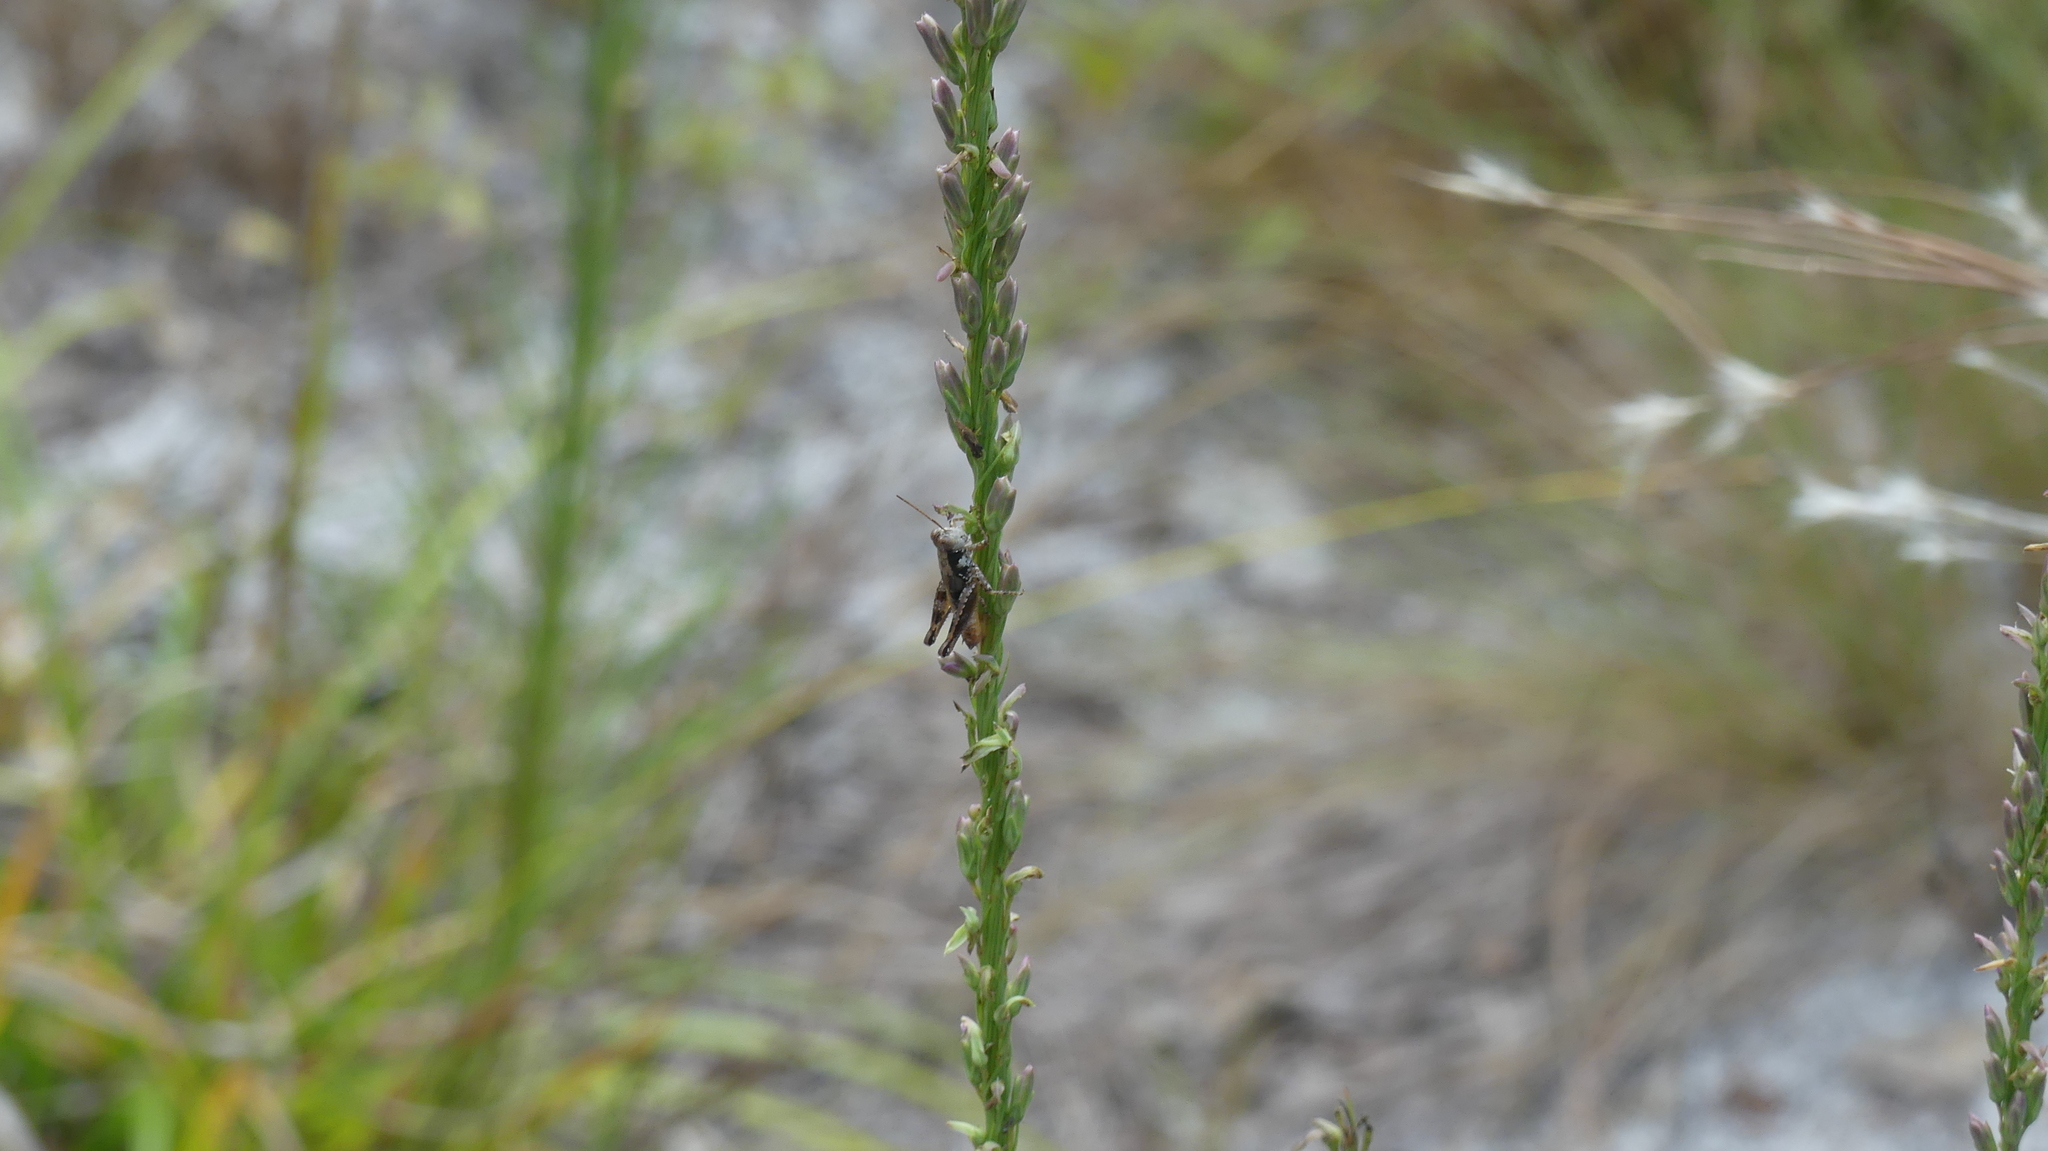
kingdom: Animalia
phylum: Arthropoda
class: Insecta
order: Orthoptera
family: Acrididae
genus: Melanoplus
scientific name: Melanoplus puer
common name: Least short-winged locust
